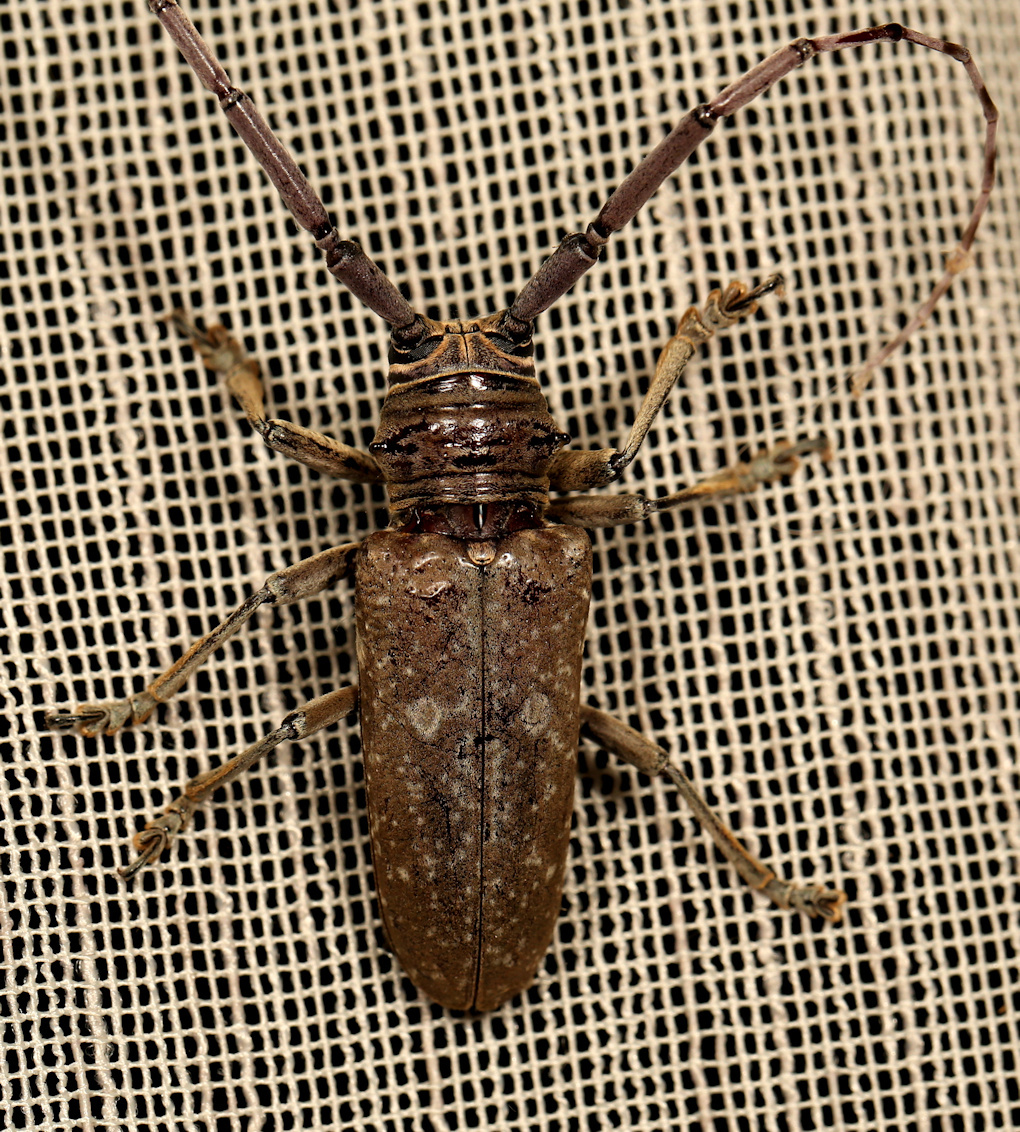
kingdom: Animalia
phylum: Arthropoda
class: Insecta
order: Coleoptera
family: Cerambycidae
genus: Prosopocera
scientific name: Prosopocera dejeani
